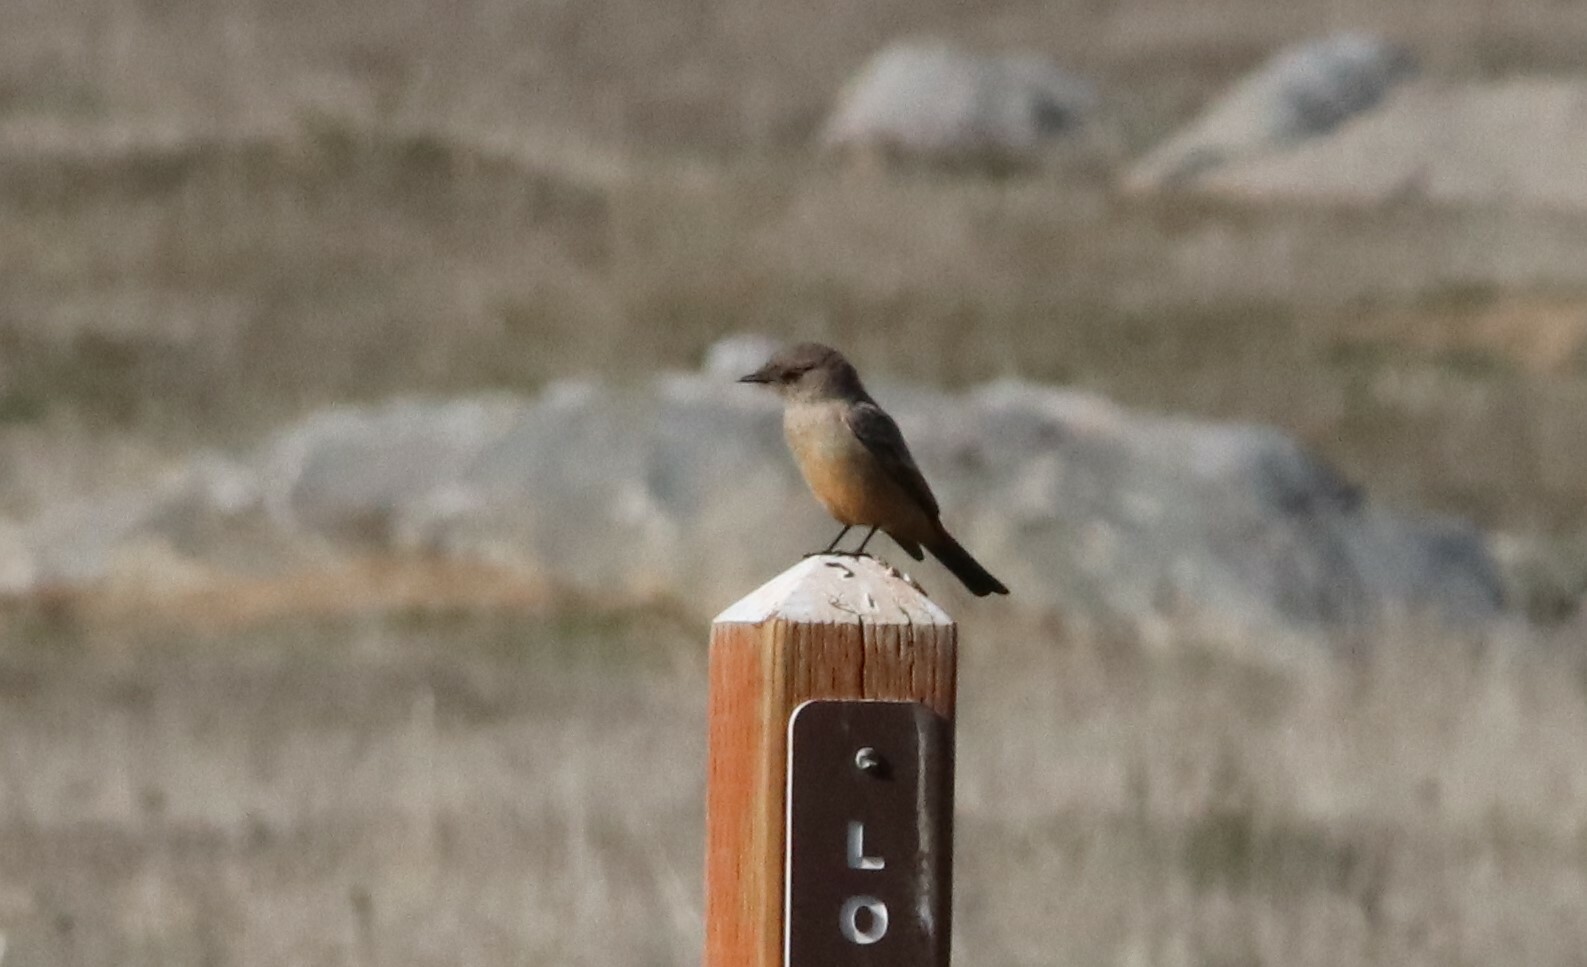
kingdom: Animalia
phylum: Chordata
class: Aves
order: Passeriformes
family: Tyrannidae
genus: Sayornis
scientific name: Sayornis saya
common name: Say's phoebe
